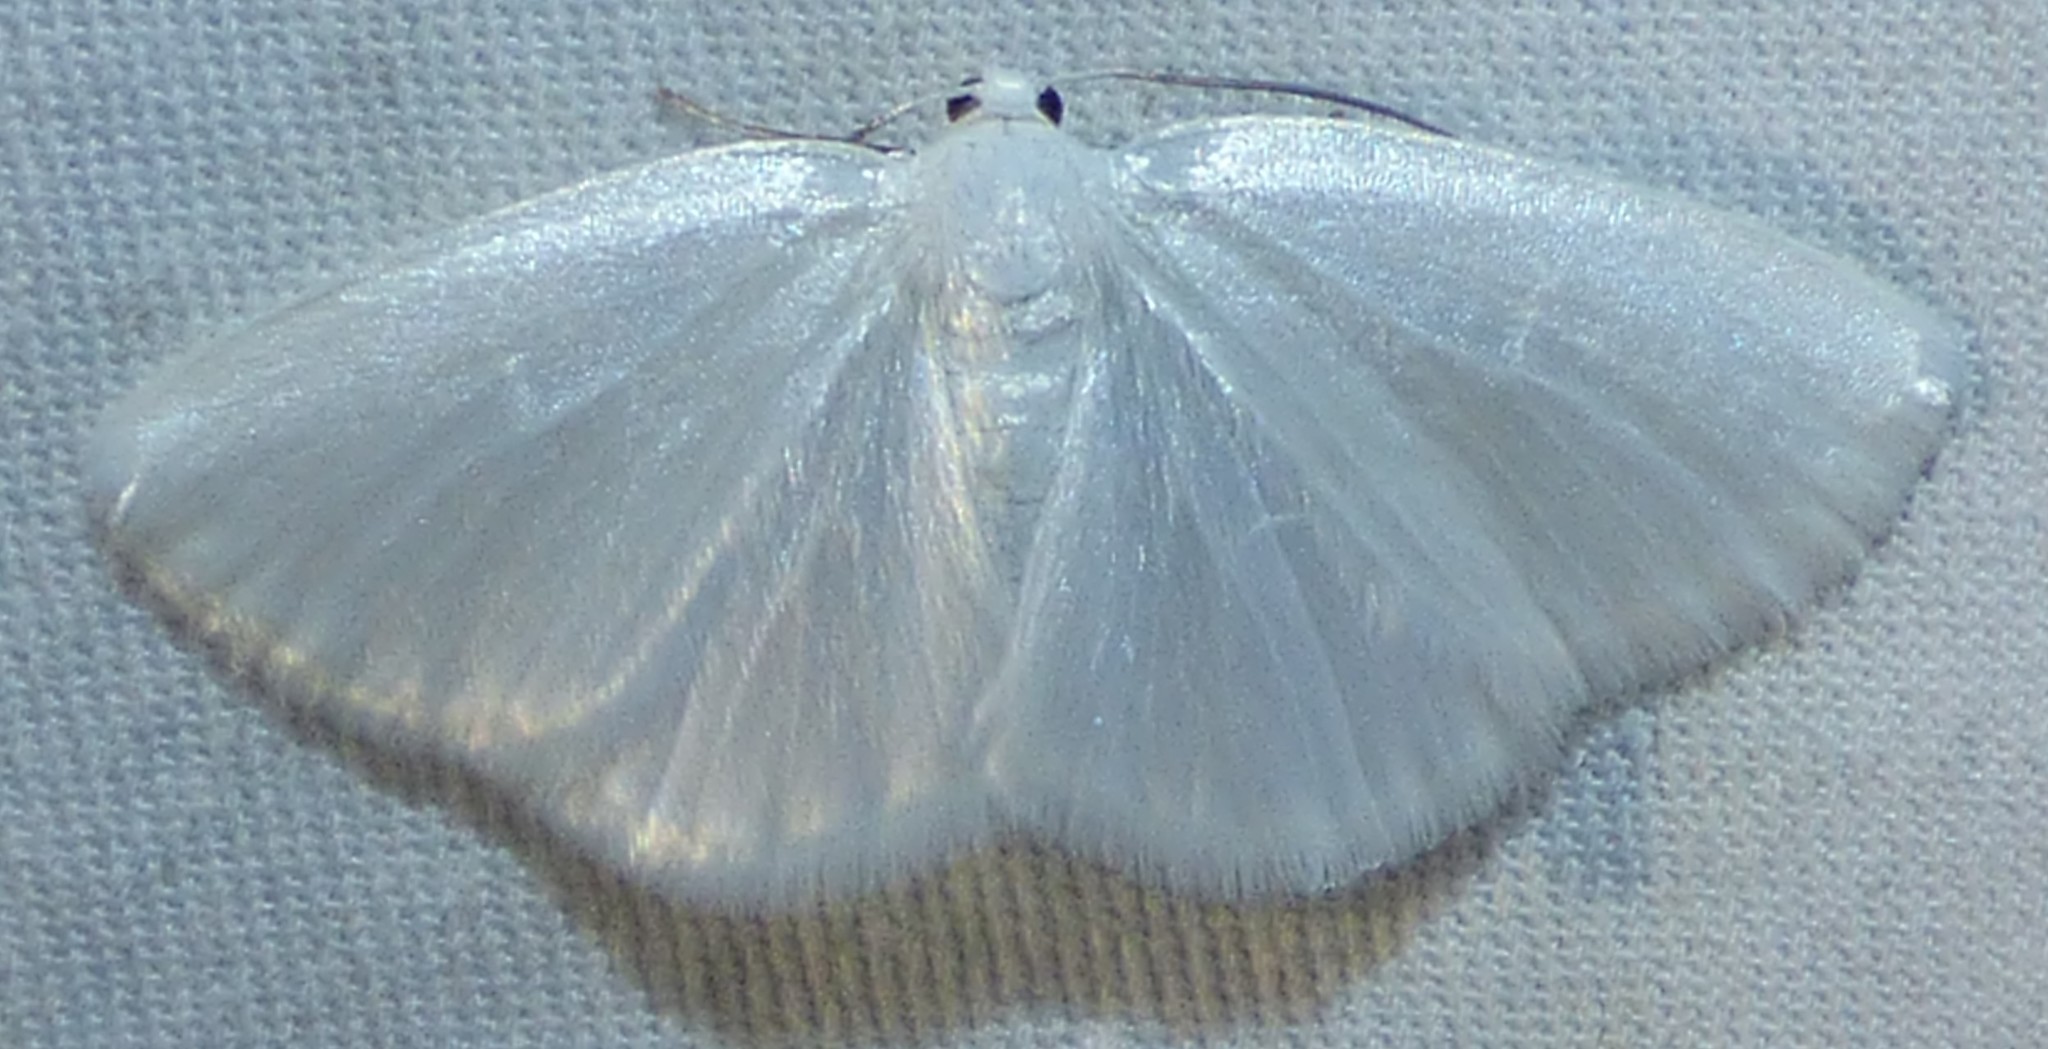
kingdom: Animalia
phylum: Arthropoda
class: Insecta
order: Lepidoptera
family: Geometridae
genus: Lomographa
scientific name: Lomographa vestaliata
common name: White spring moth
